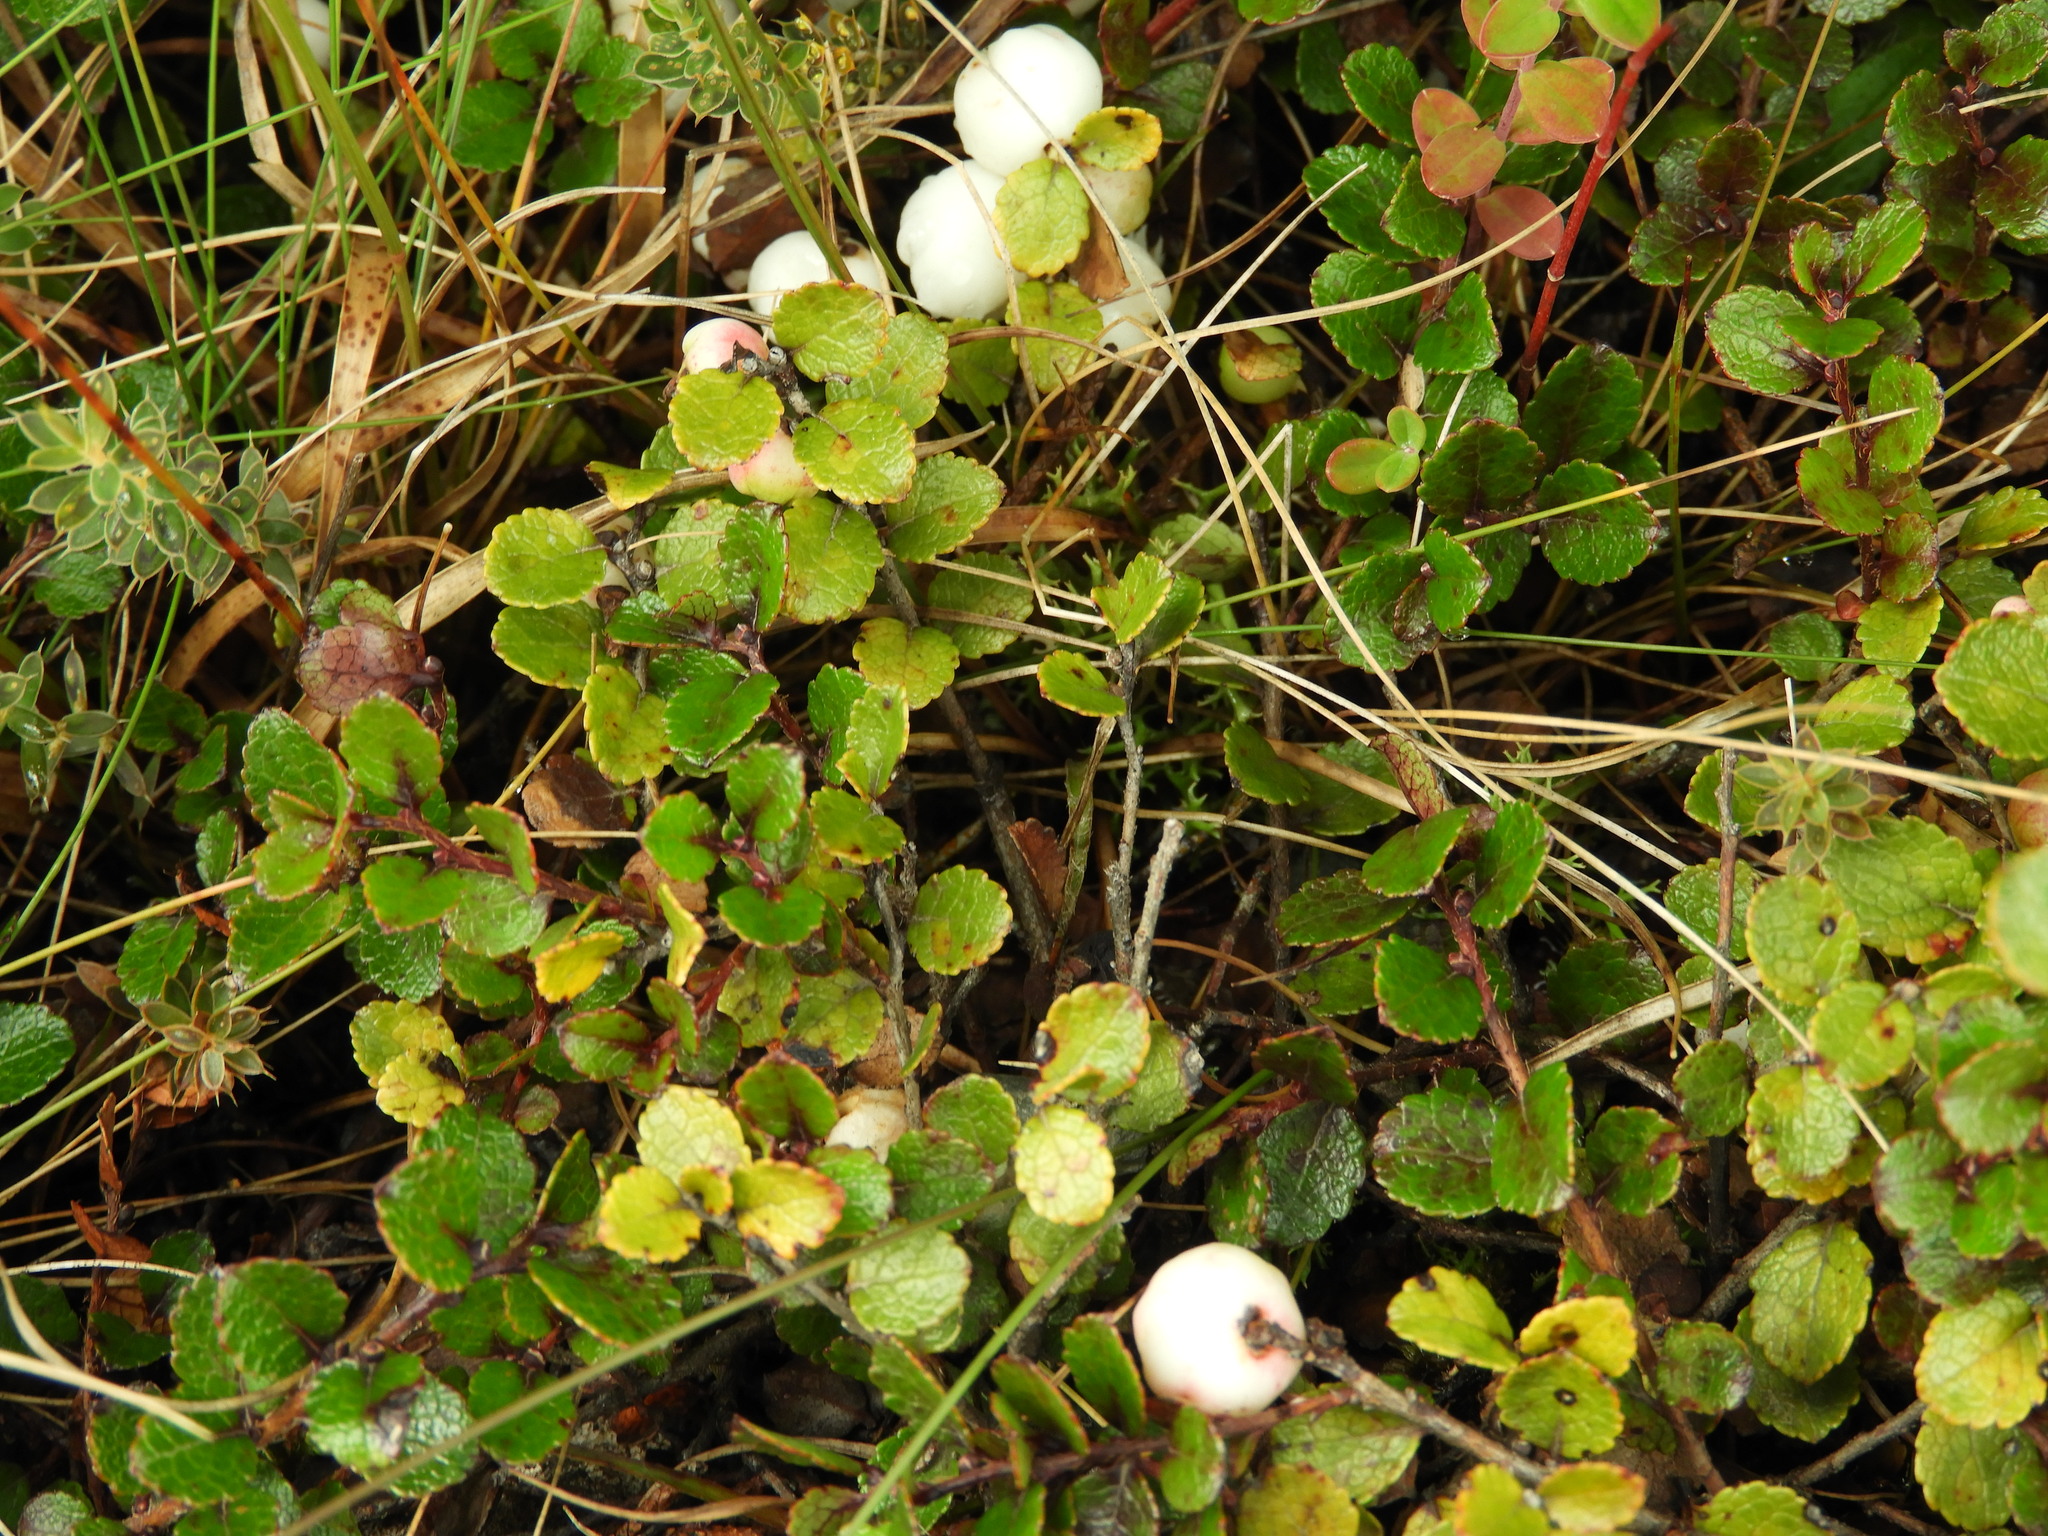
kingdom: Plantae
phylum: Tracheophyta
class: Magnoliopsida
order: Ericales
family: Ericaceae
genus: Gaultheria
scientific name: Gaultheria depressa
